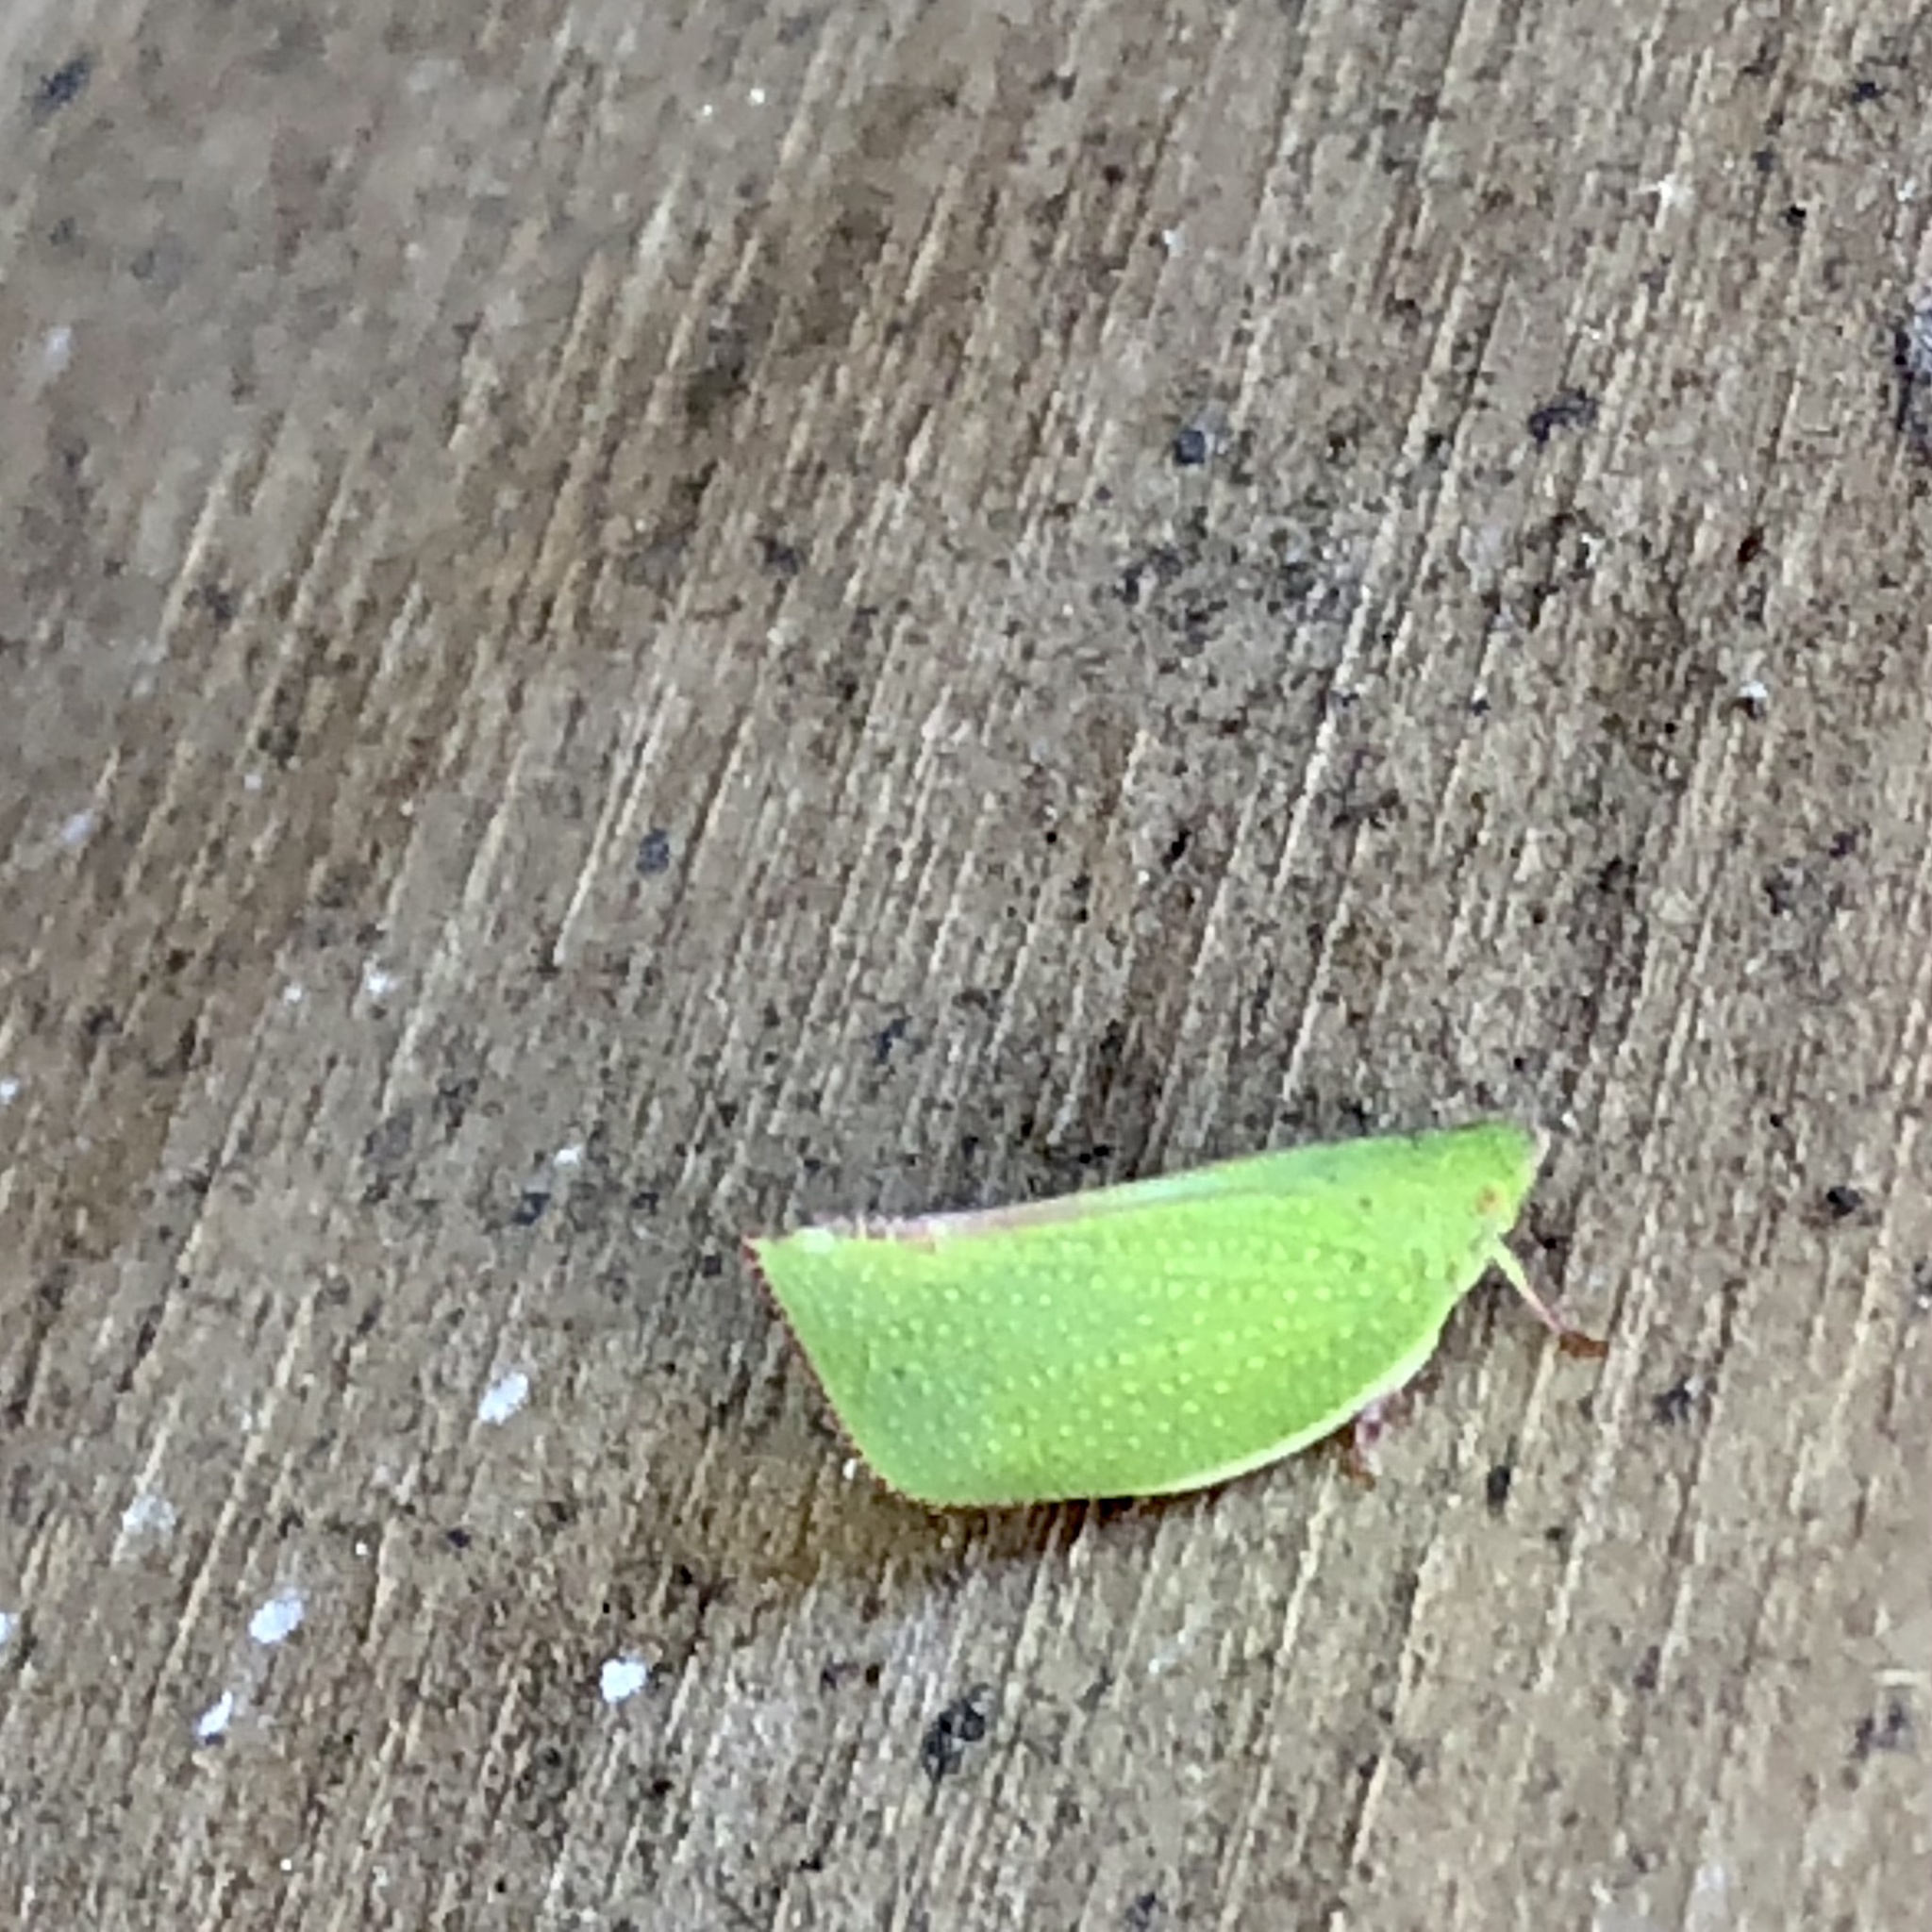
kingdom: Animalia
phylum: Arthropoda
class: Insecta
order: Hemiptera
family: Flatidae
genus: Siphanta
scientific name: Siphanta acuta
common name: Torpedo bug
